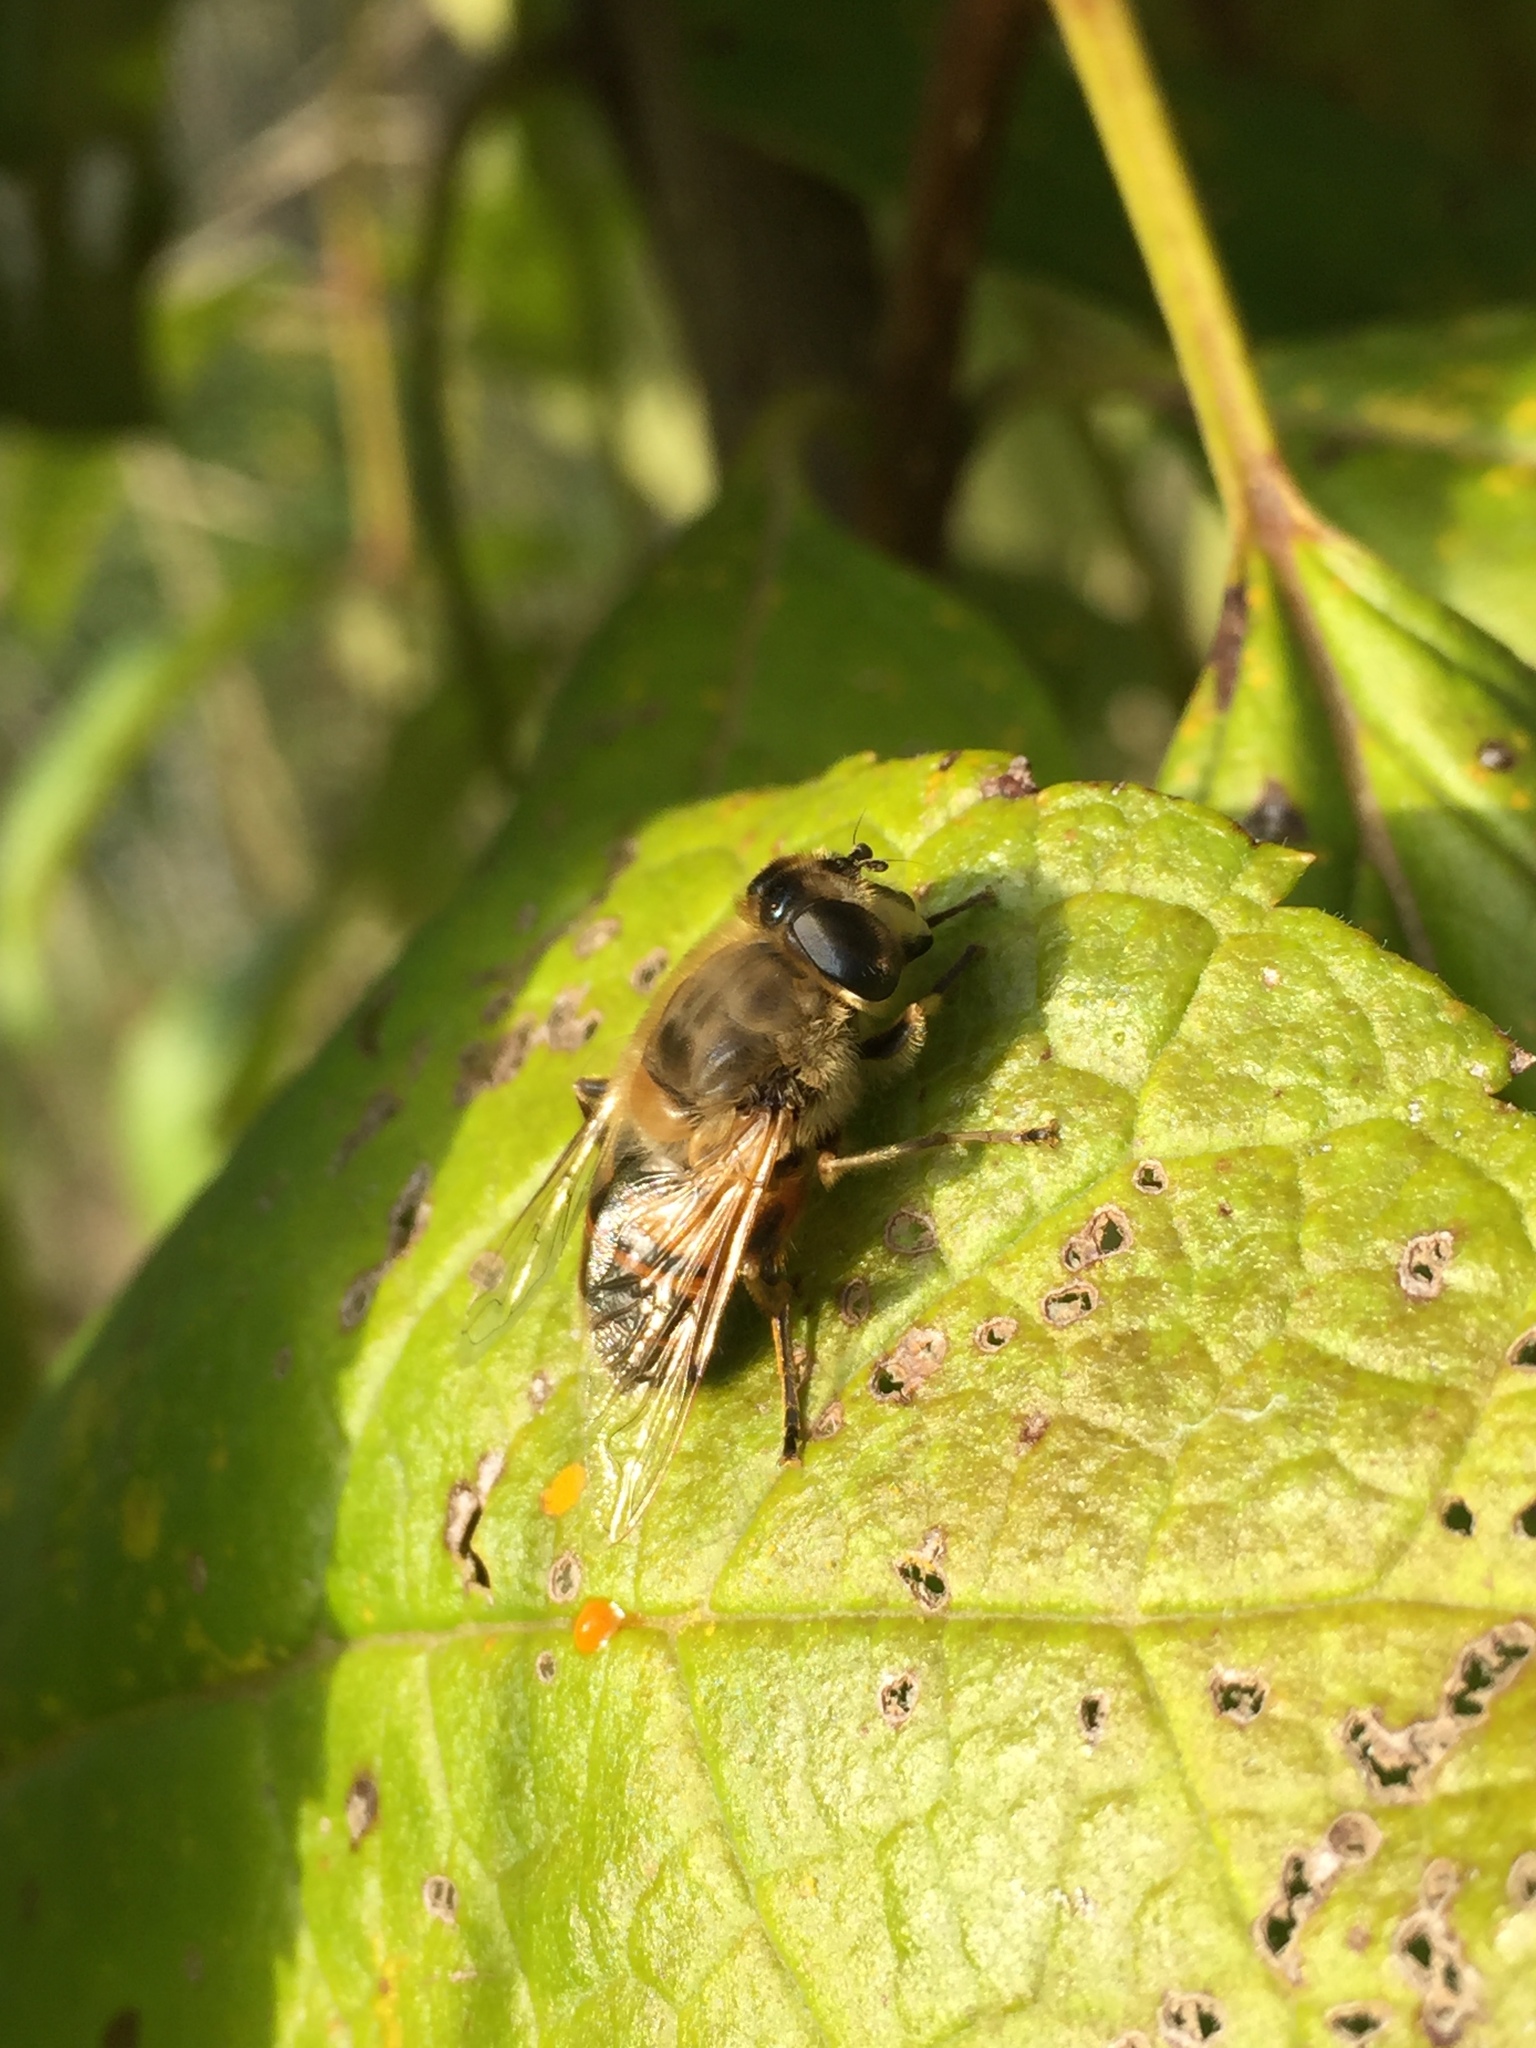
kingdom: Animalia
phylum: Arthropoda
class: Insecta
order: Diptera
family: Syrphidae
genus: Eristalis
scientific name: Eristalis tenax
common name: Drone fly
